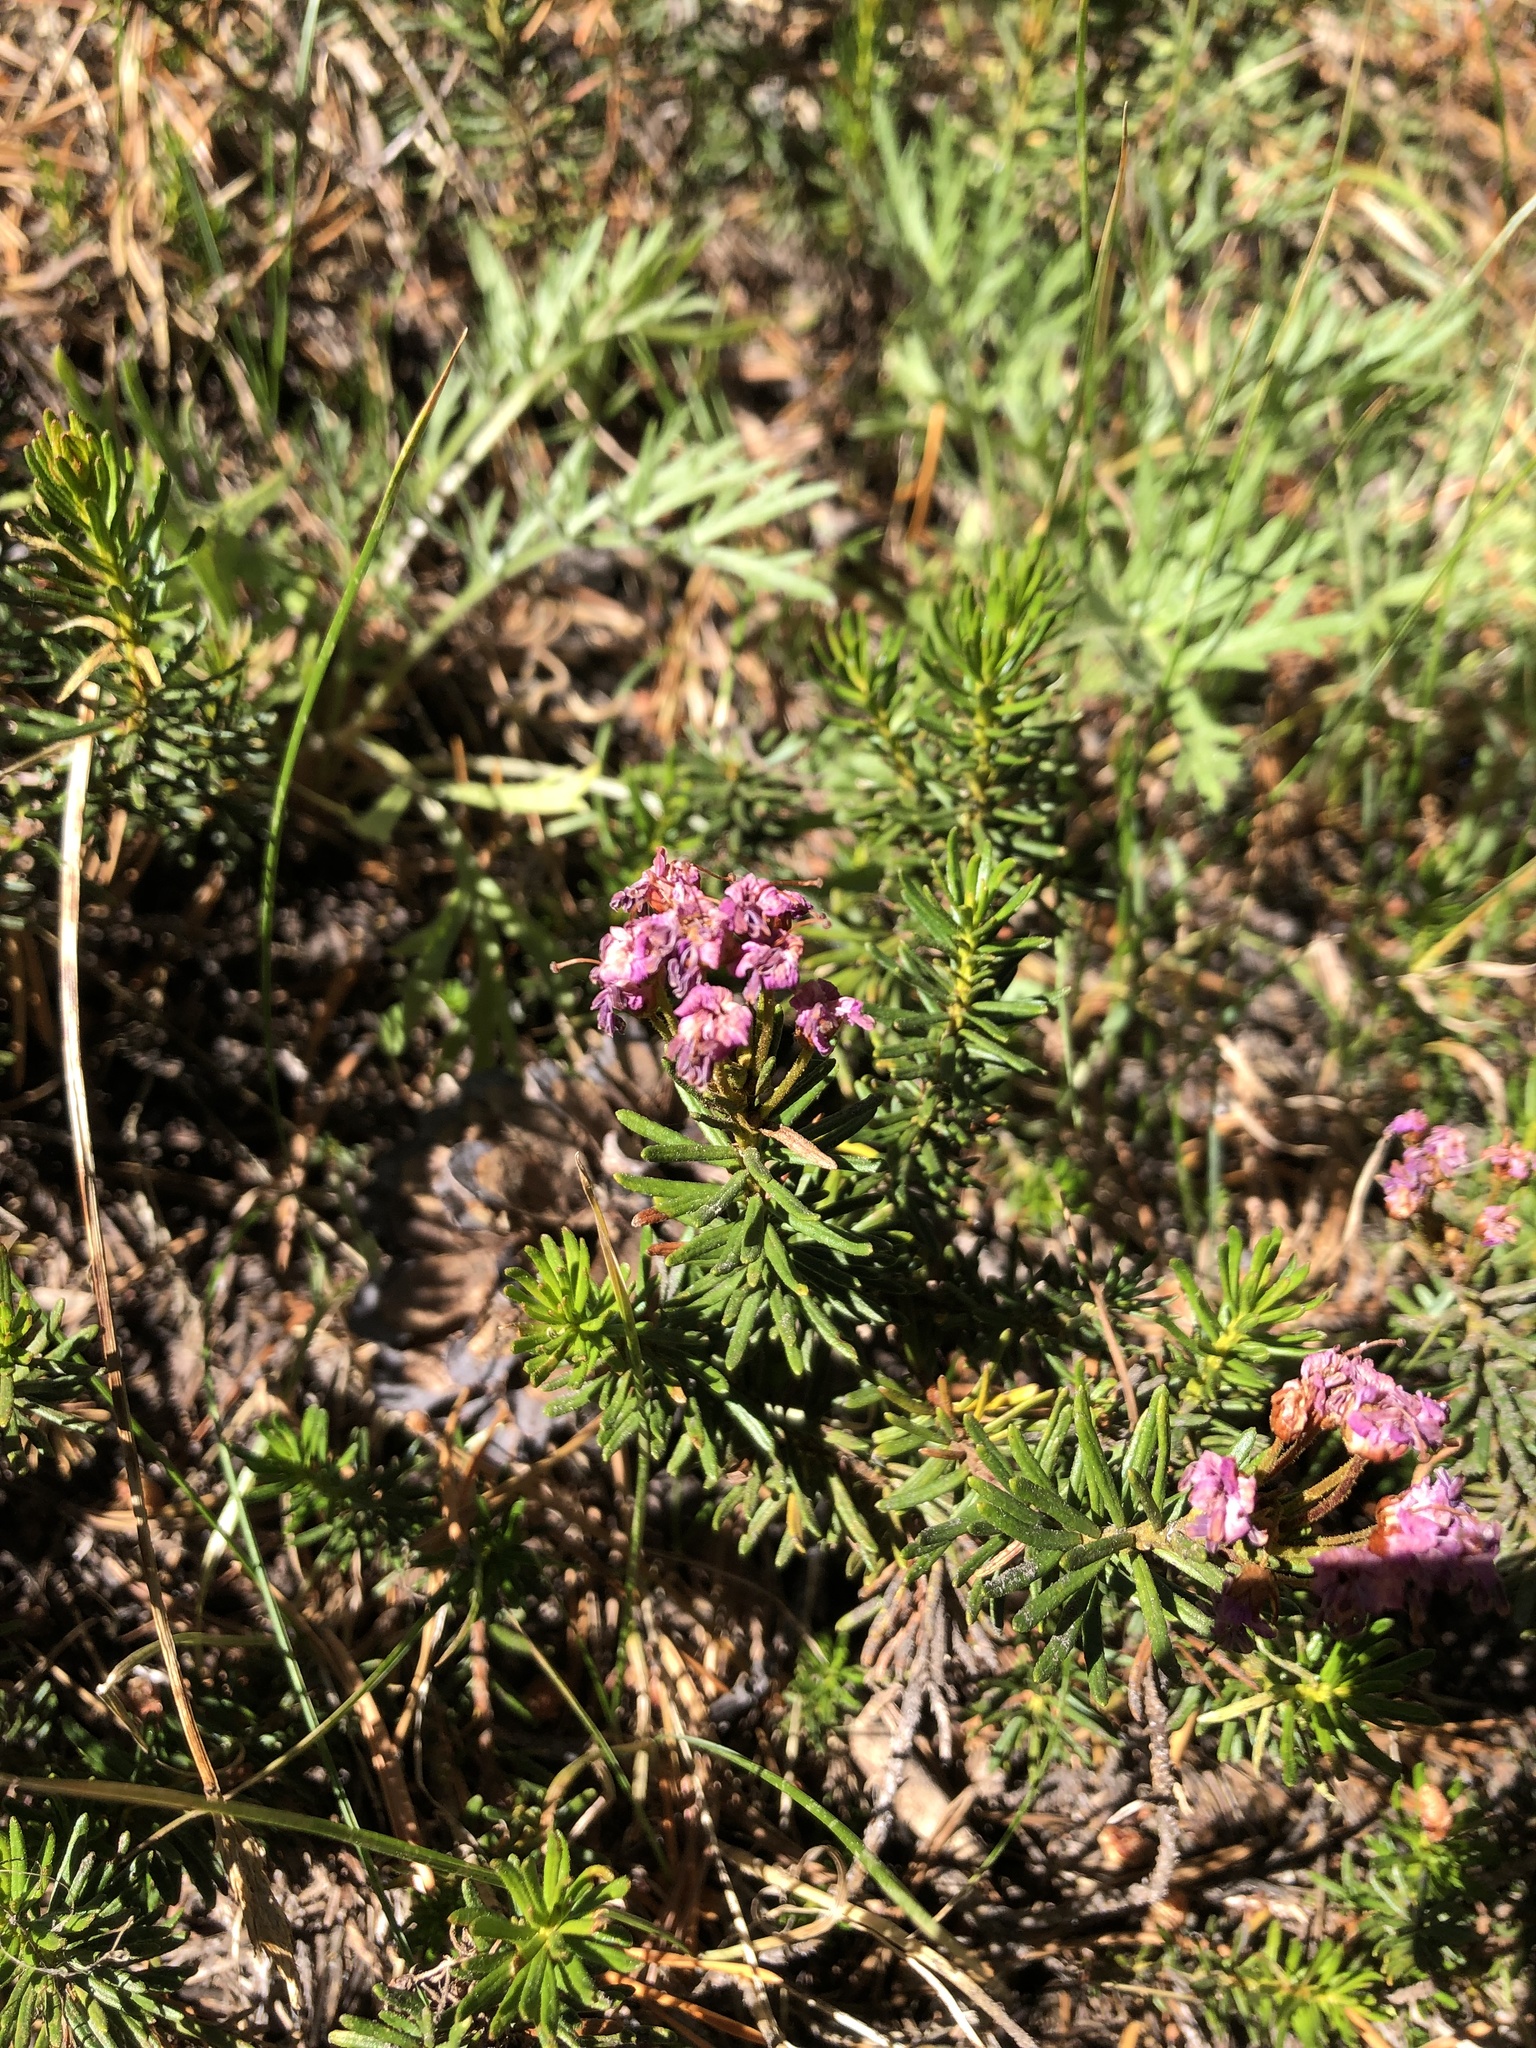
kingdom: Plantae
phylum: Tracheophyta
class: Magnoliopsida
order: Ericales
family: Ericaceae
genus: Phyllodoce
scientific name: Phyllodoce breweri
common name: Brewer's mountain-heather
